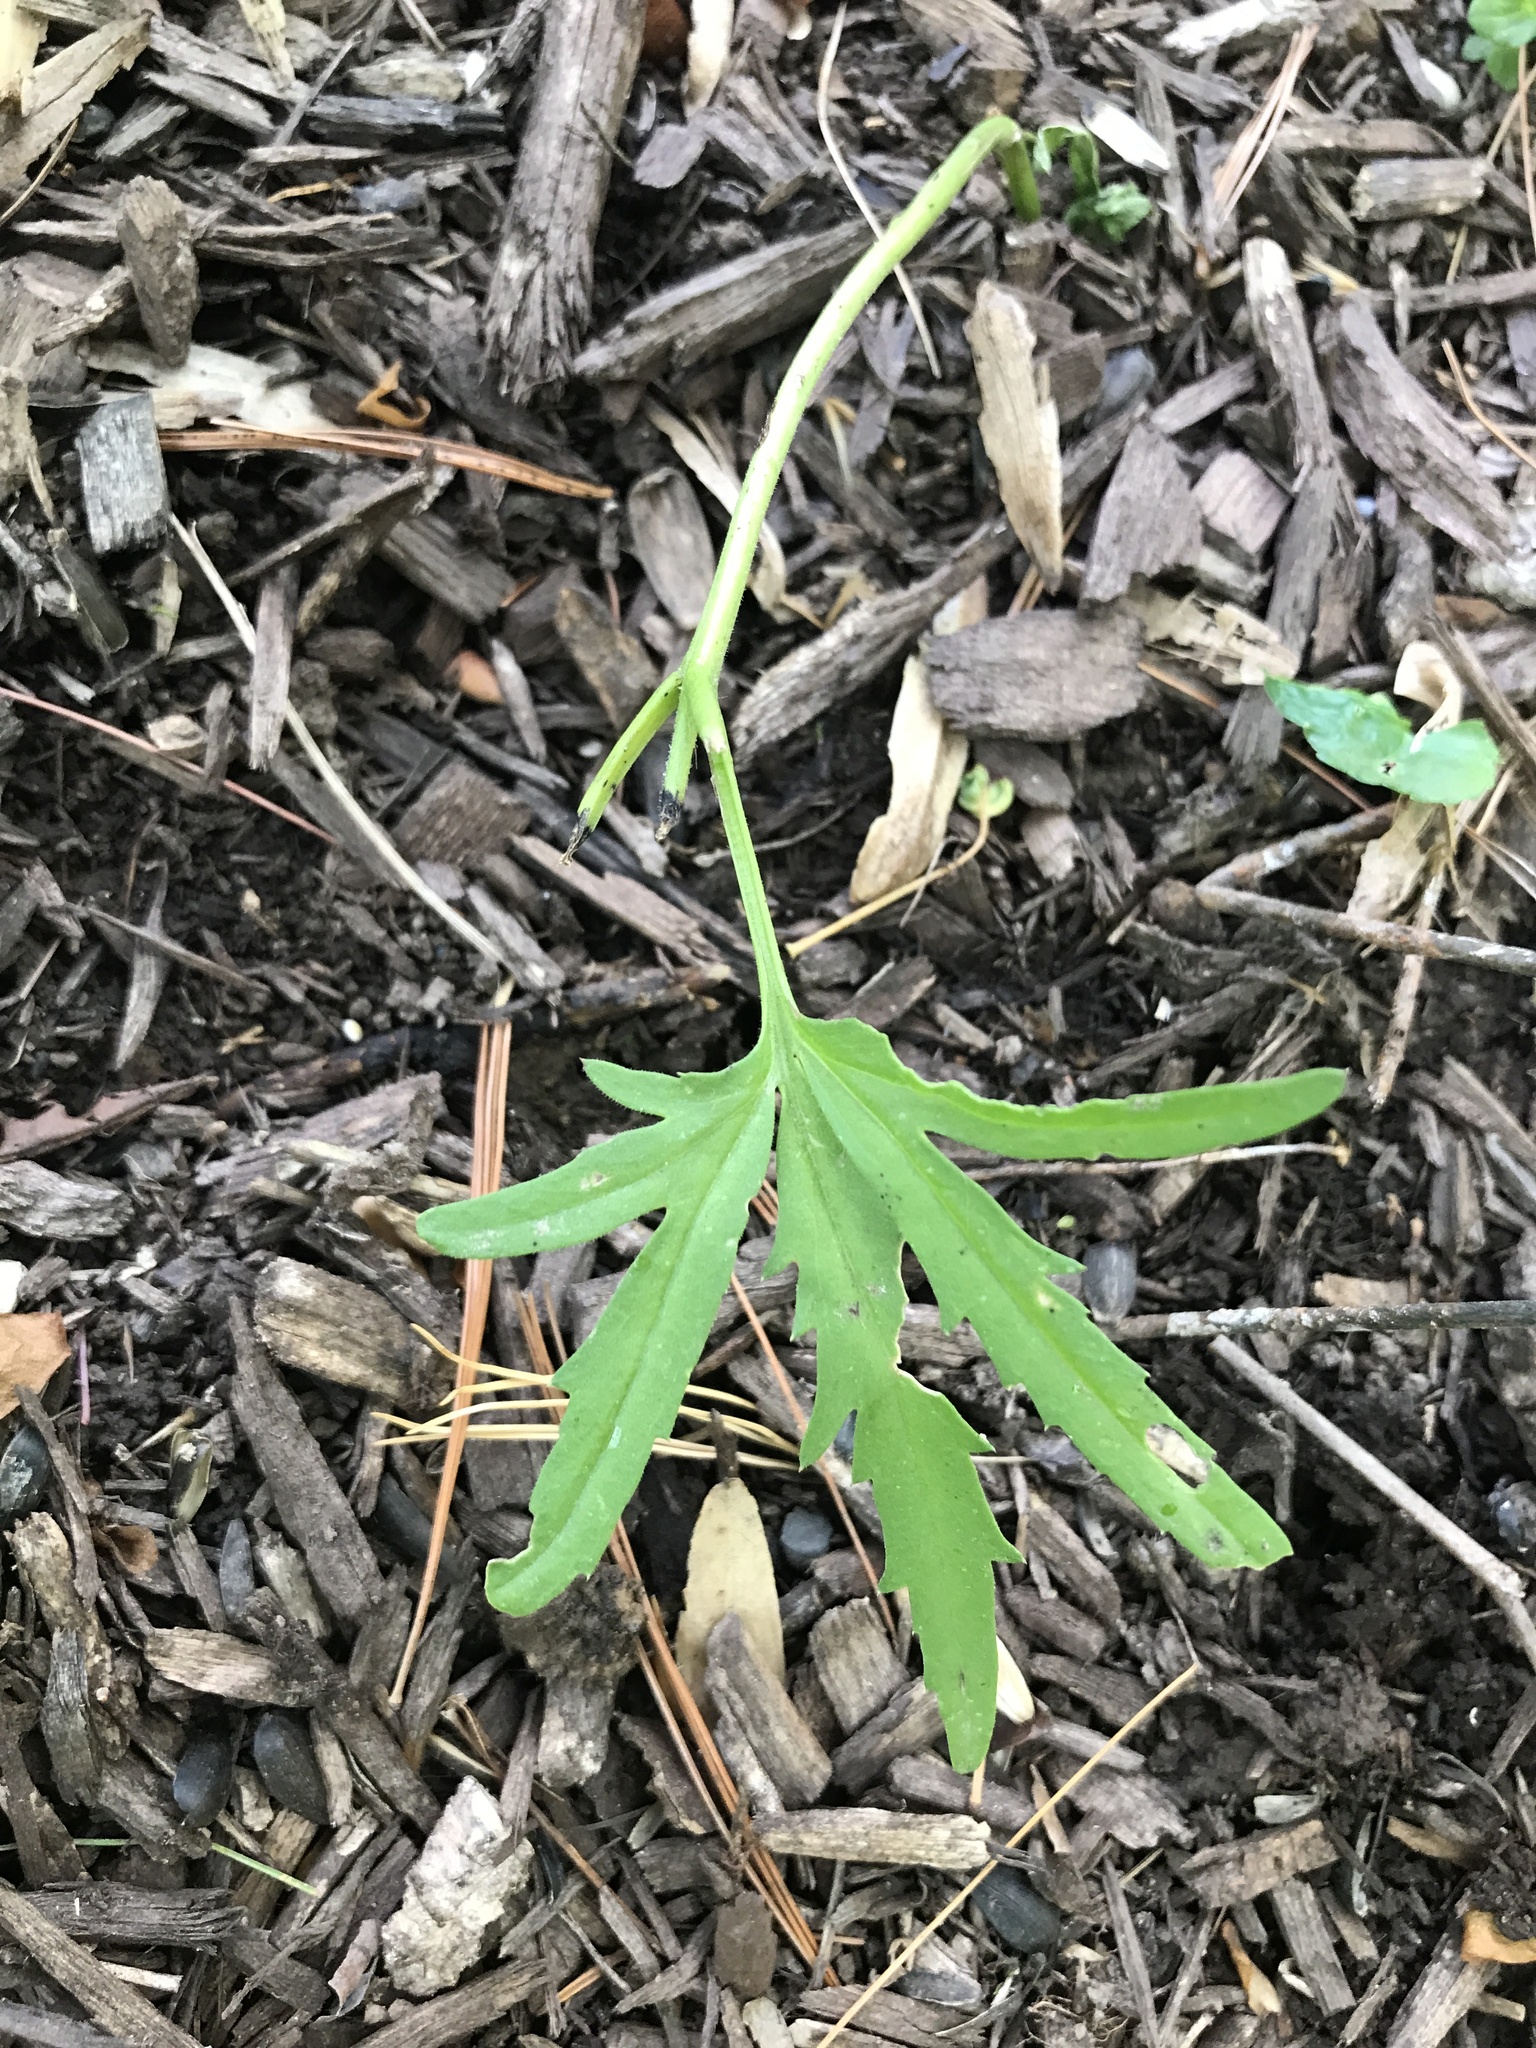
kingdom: Plantae
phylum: Tracheophyta
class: Magnoliopsida
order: Brassicales
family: Brassicaceae
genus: Cardamine
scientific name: Cardamine concatenata
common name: Cut-leaf toothcup
